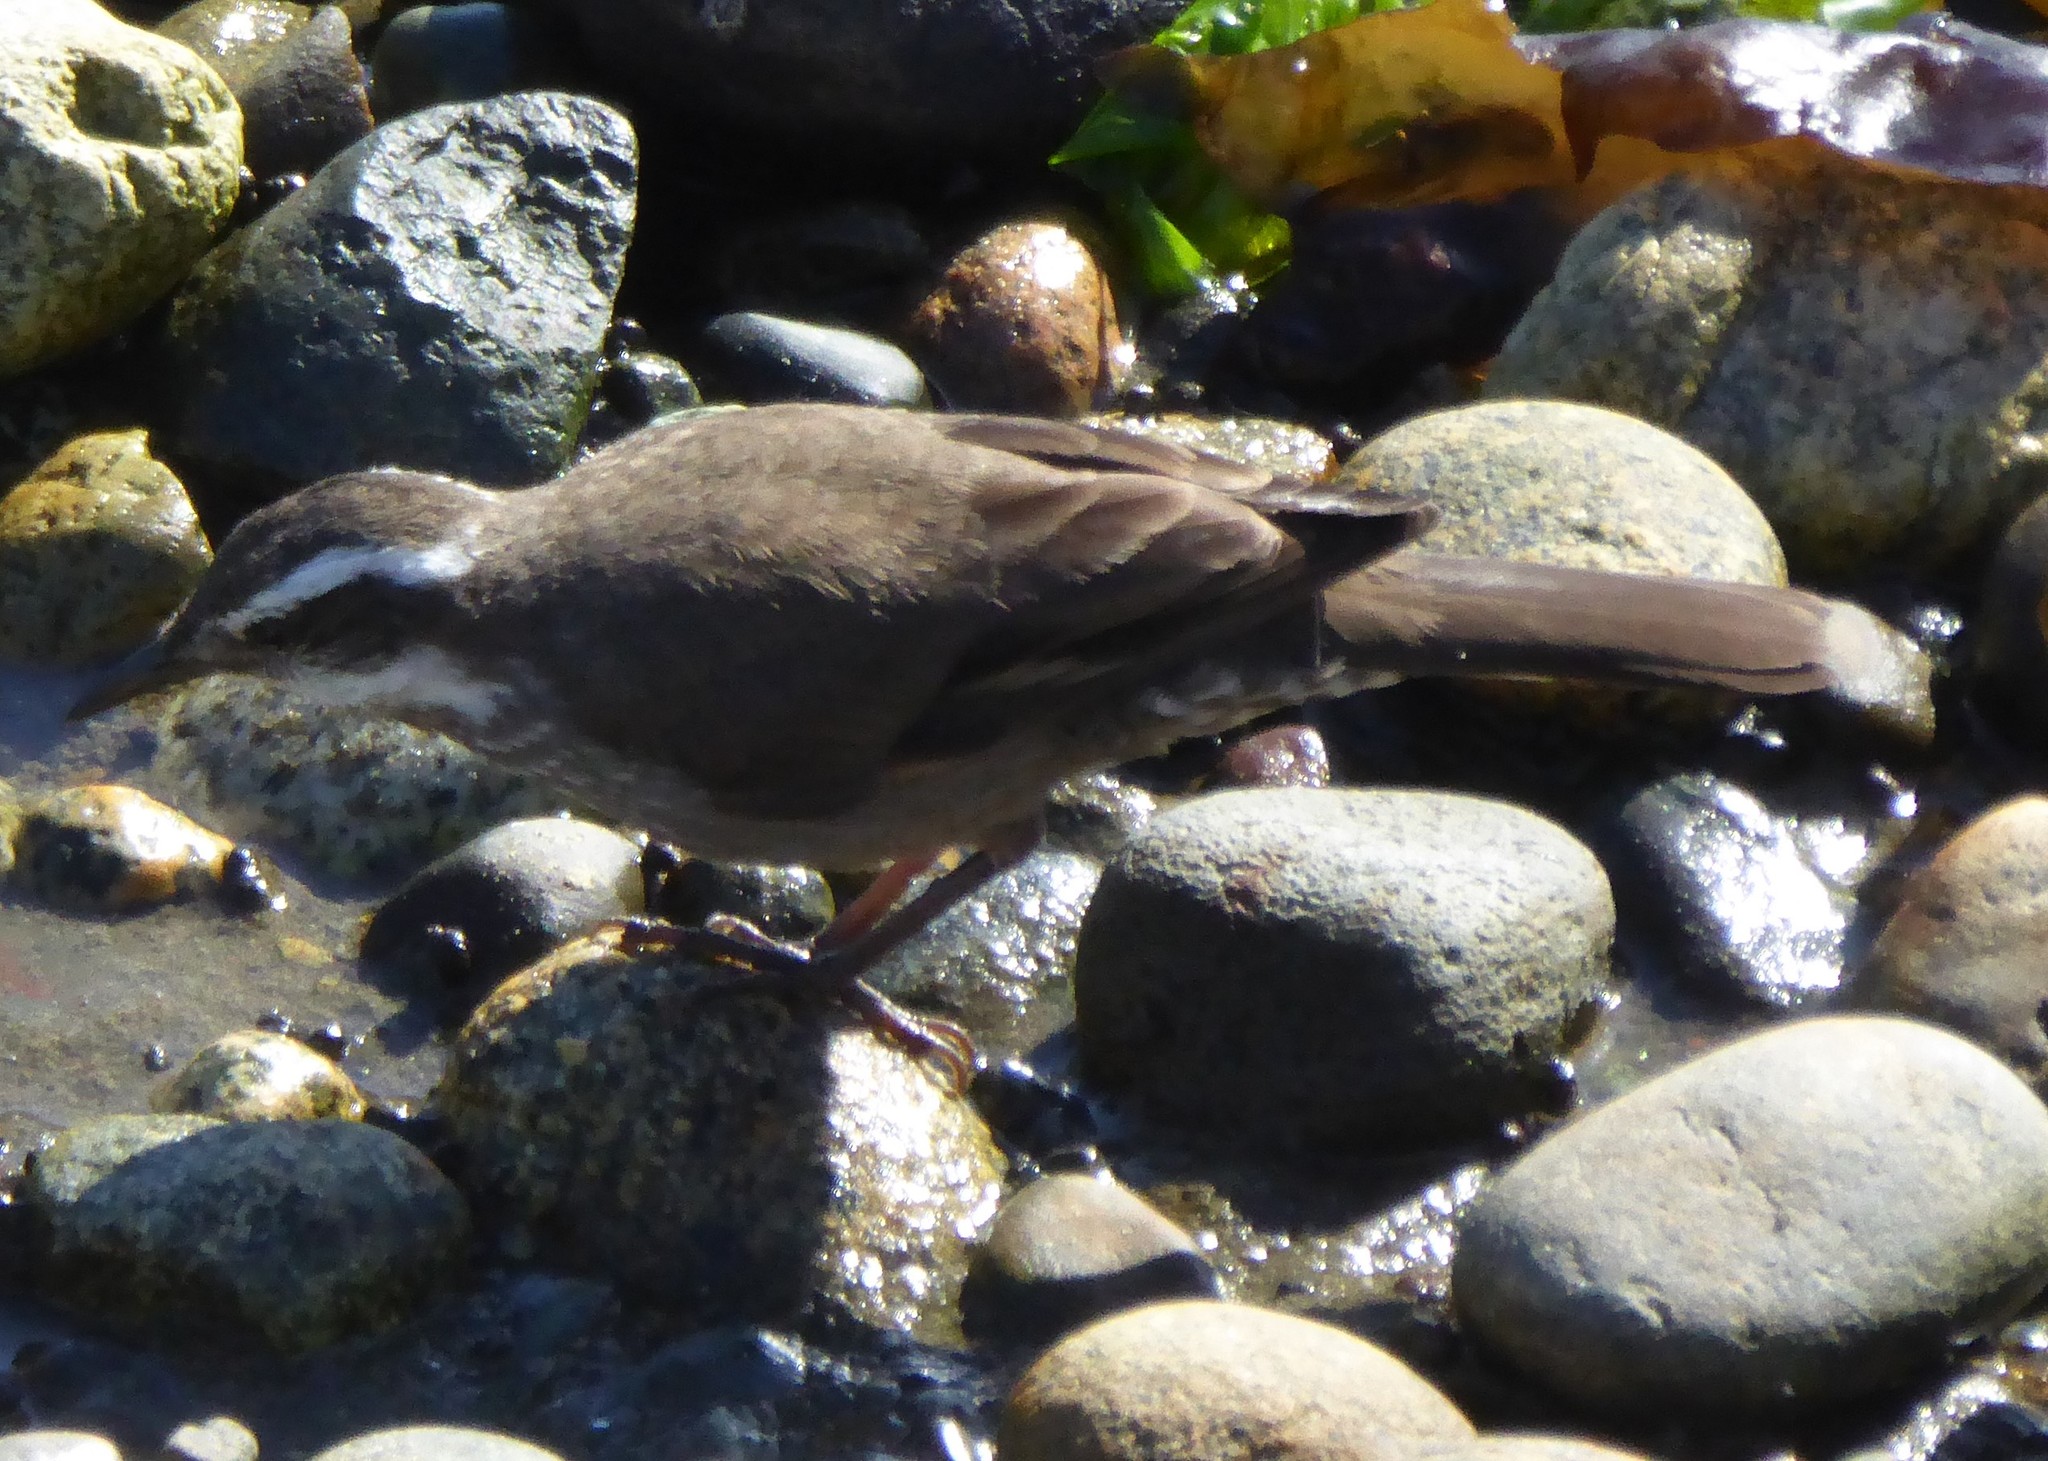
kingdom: Animalia
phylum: Chordata
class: Aves
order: Passeriformes
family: Furnariidae
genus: Cinclodes
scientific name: Cinclodes patagonicus
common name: Dark-bellied cinclodes
